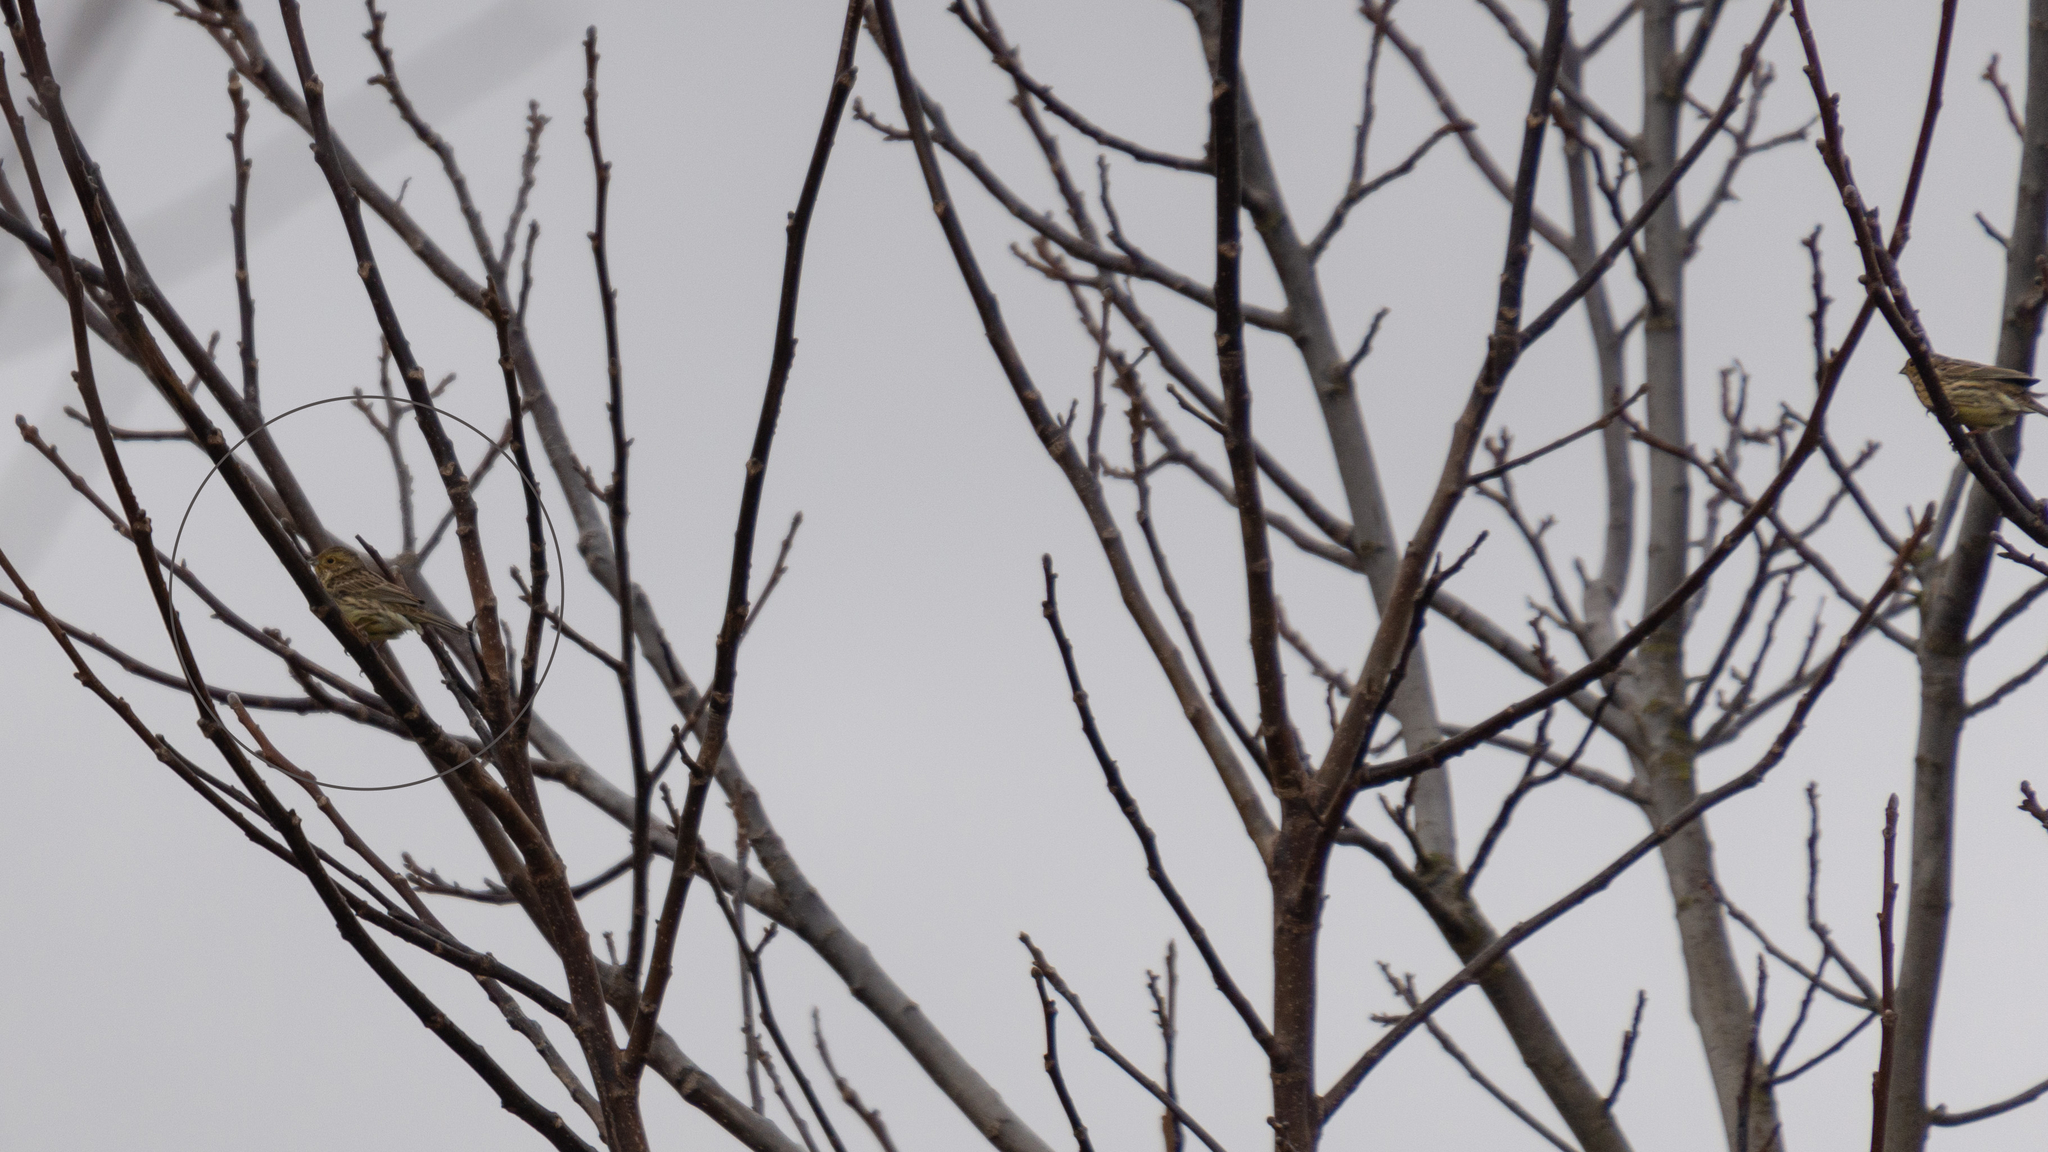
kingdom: Animalia
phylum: Chordata
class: Aves
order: Passeriformes
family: Emberizidae
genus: Emberiza
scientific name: Emberiza cirlus
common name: Cirl bunting
